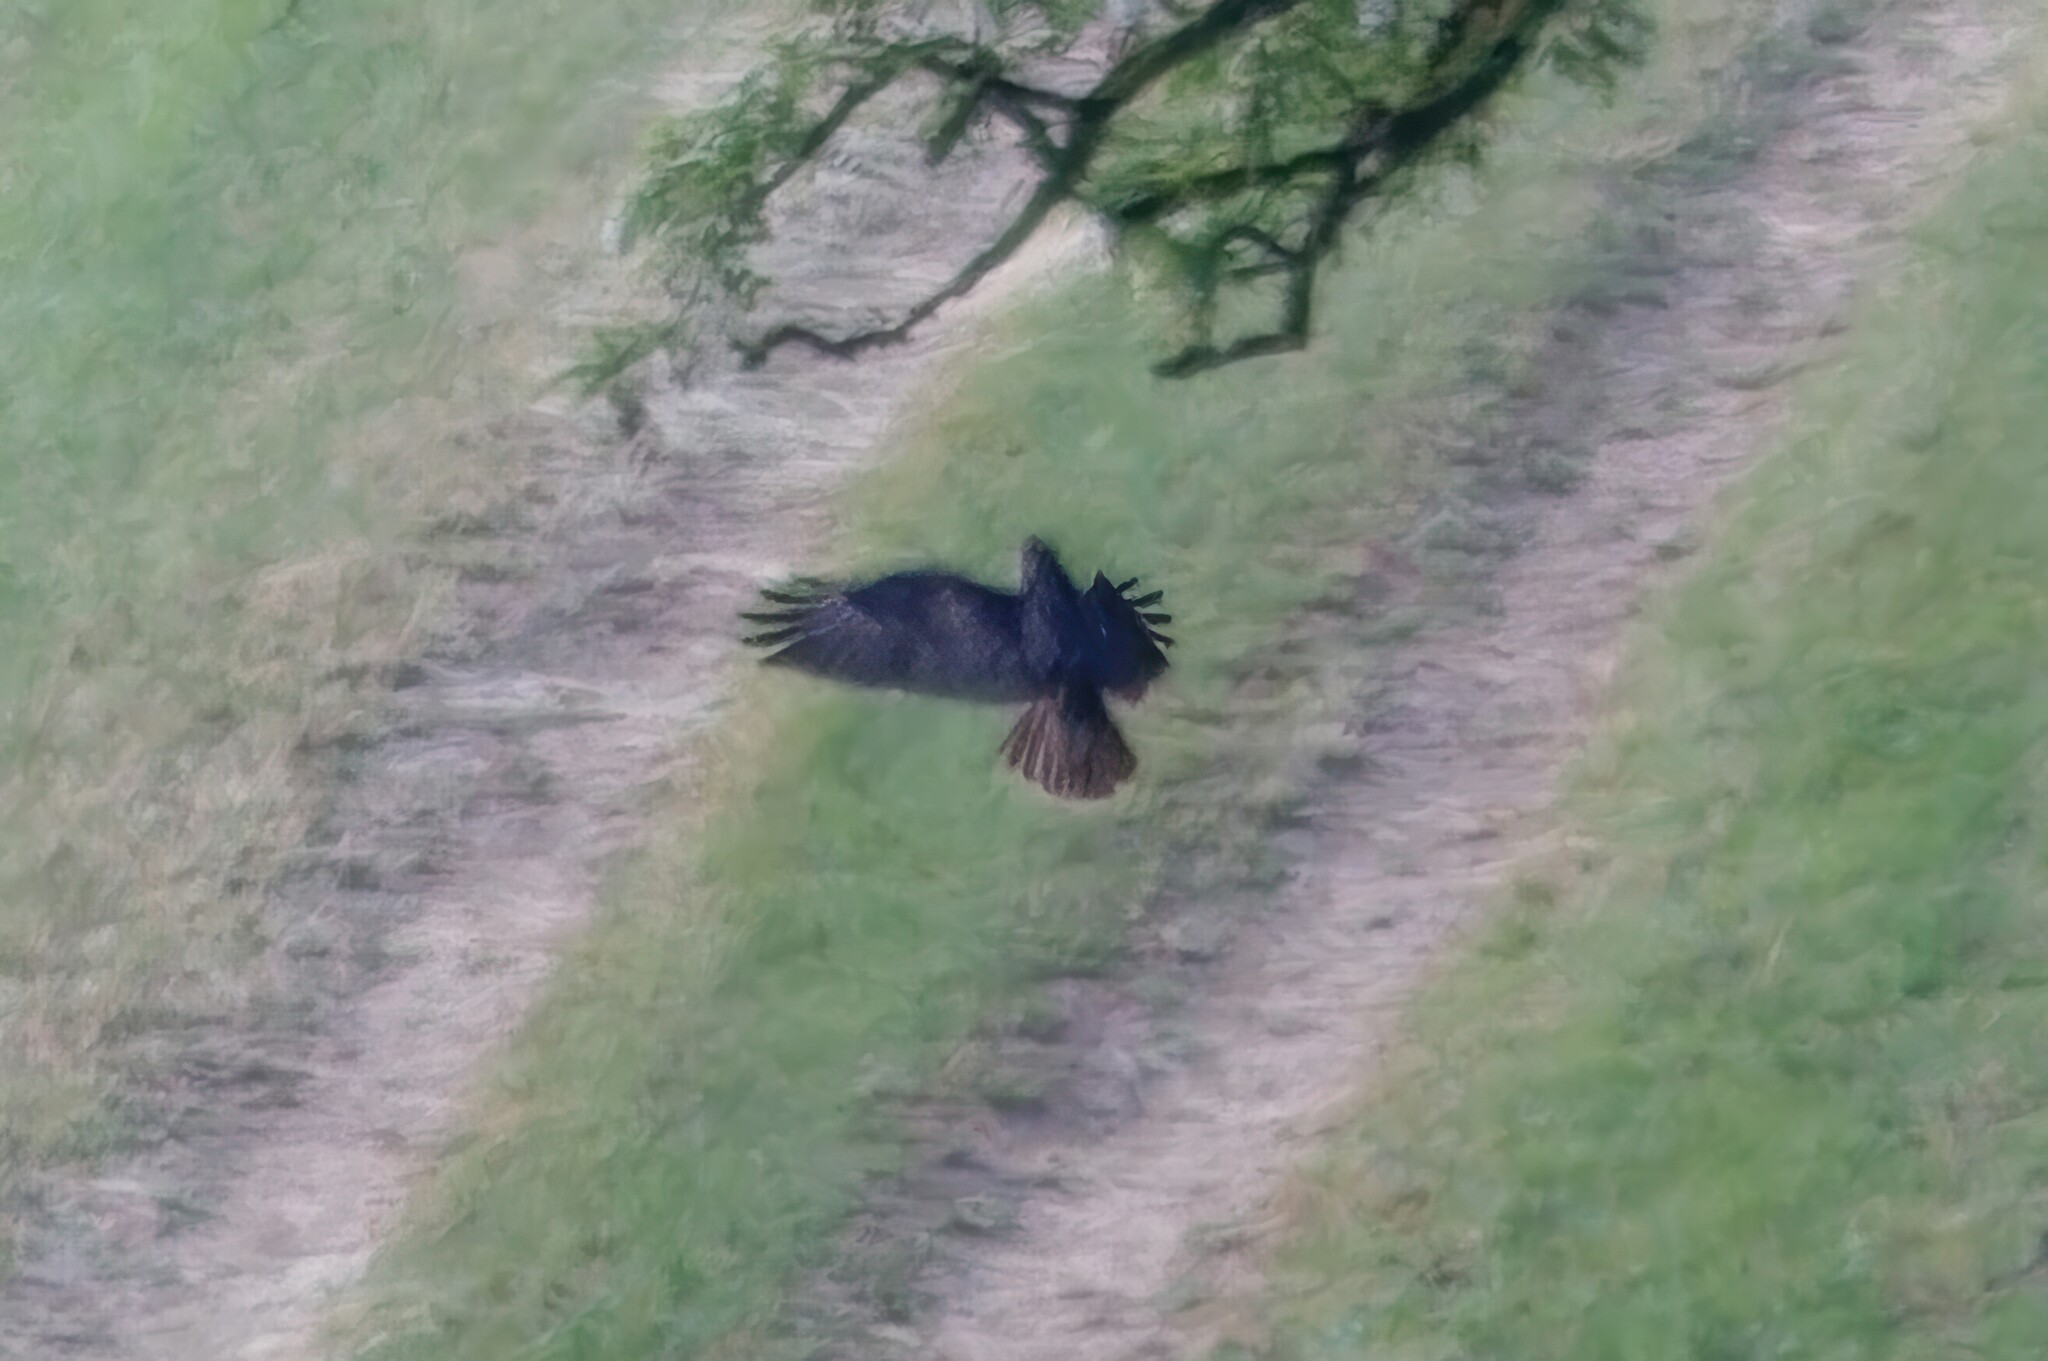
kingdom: Animalia
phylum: Chordata
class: Aves
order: Accipitriformes
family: Accipitridae
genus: Buteo
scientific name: Buteo buteo
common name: Common buzzard
